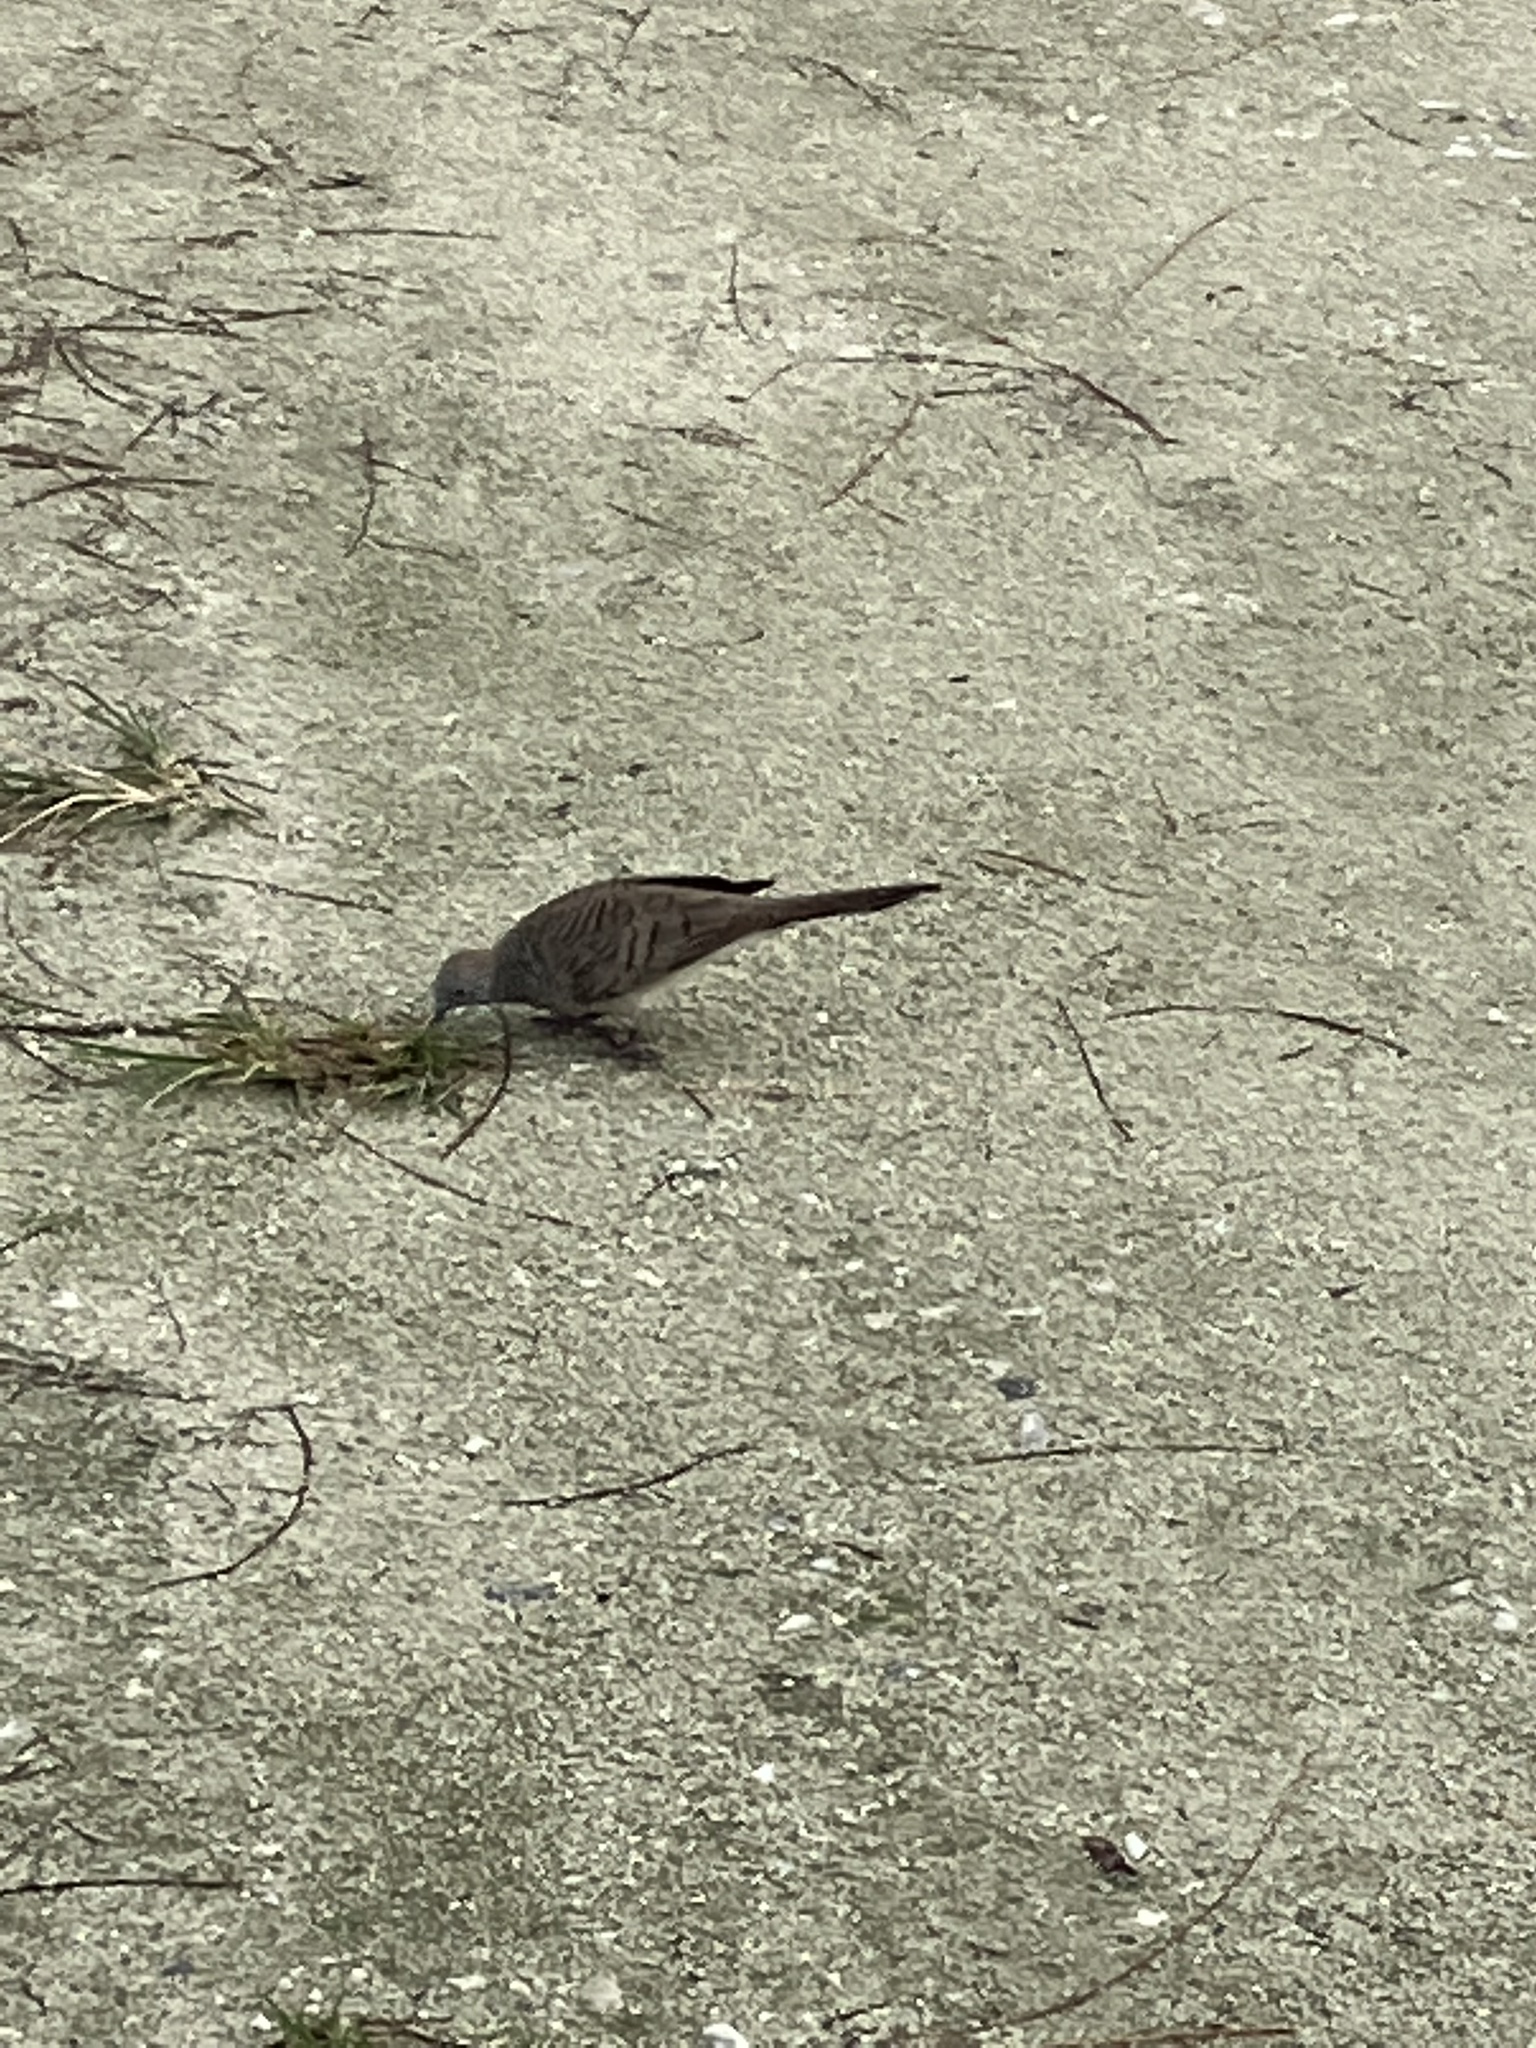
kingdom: Animalia
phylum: Chordata
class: Aves
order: Columbiformes
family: Columbidae
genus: Geopelia
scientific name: Geopelia striata
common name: Zebra dove
